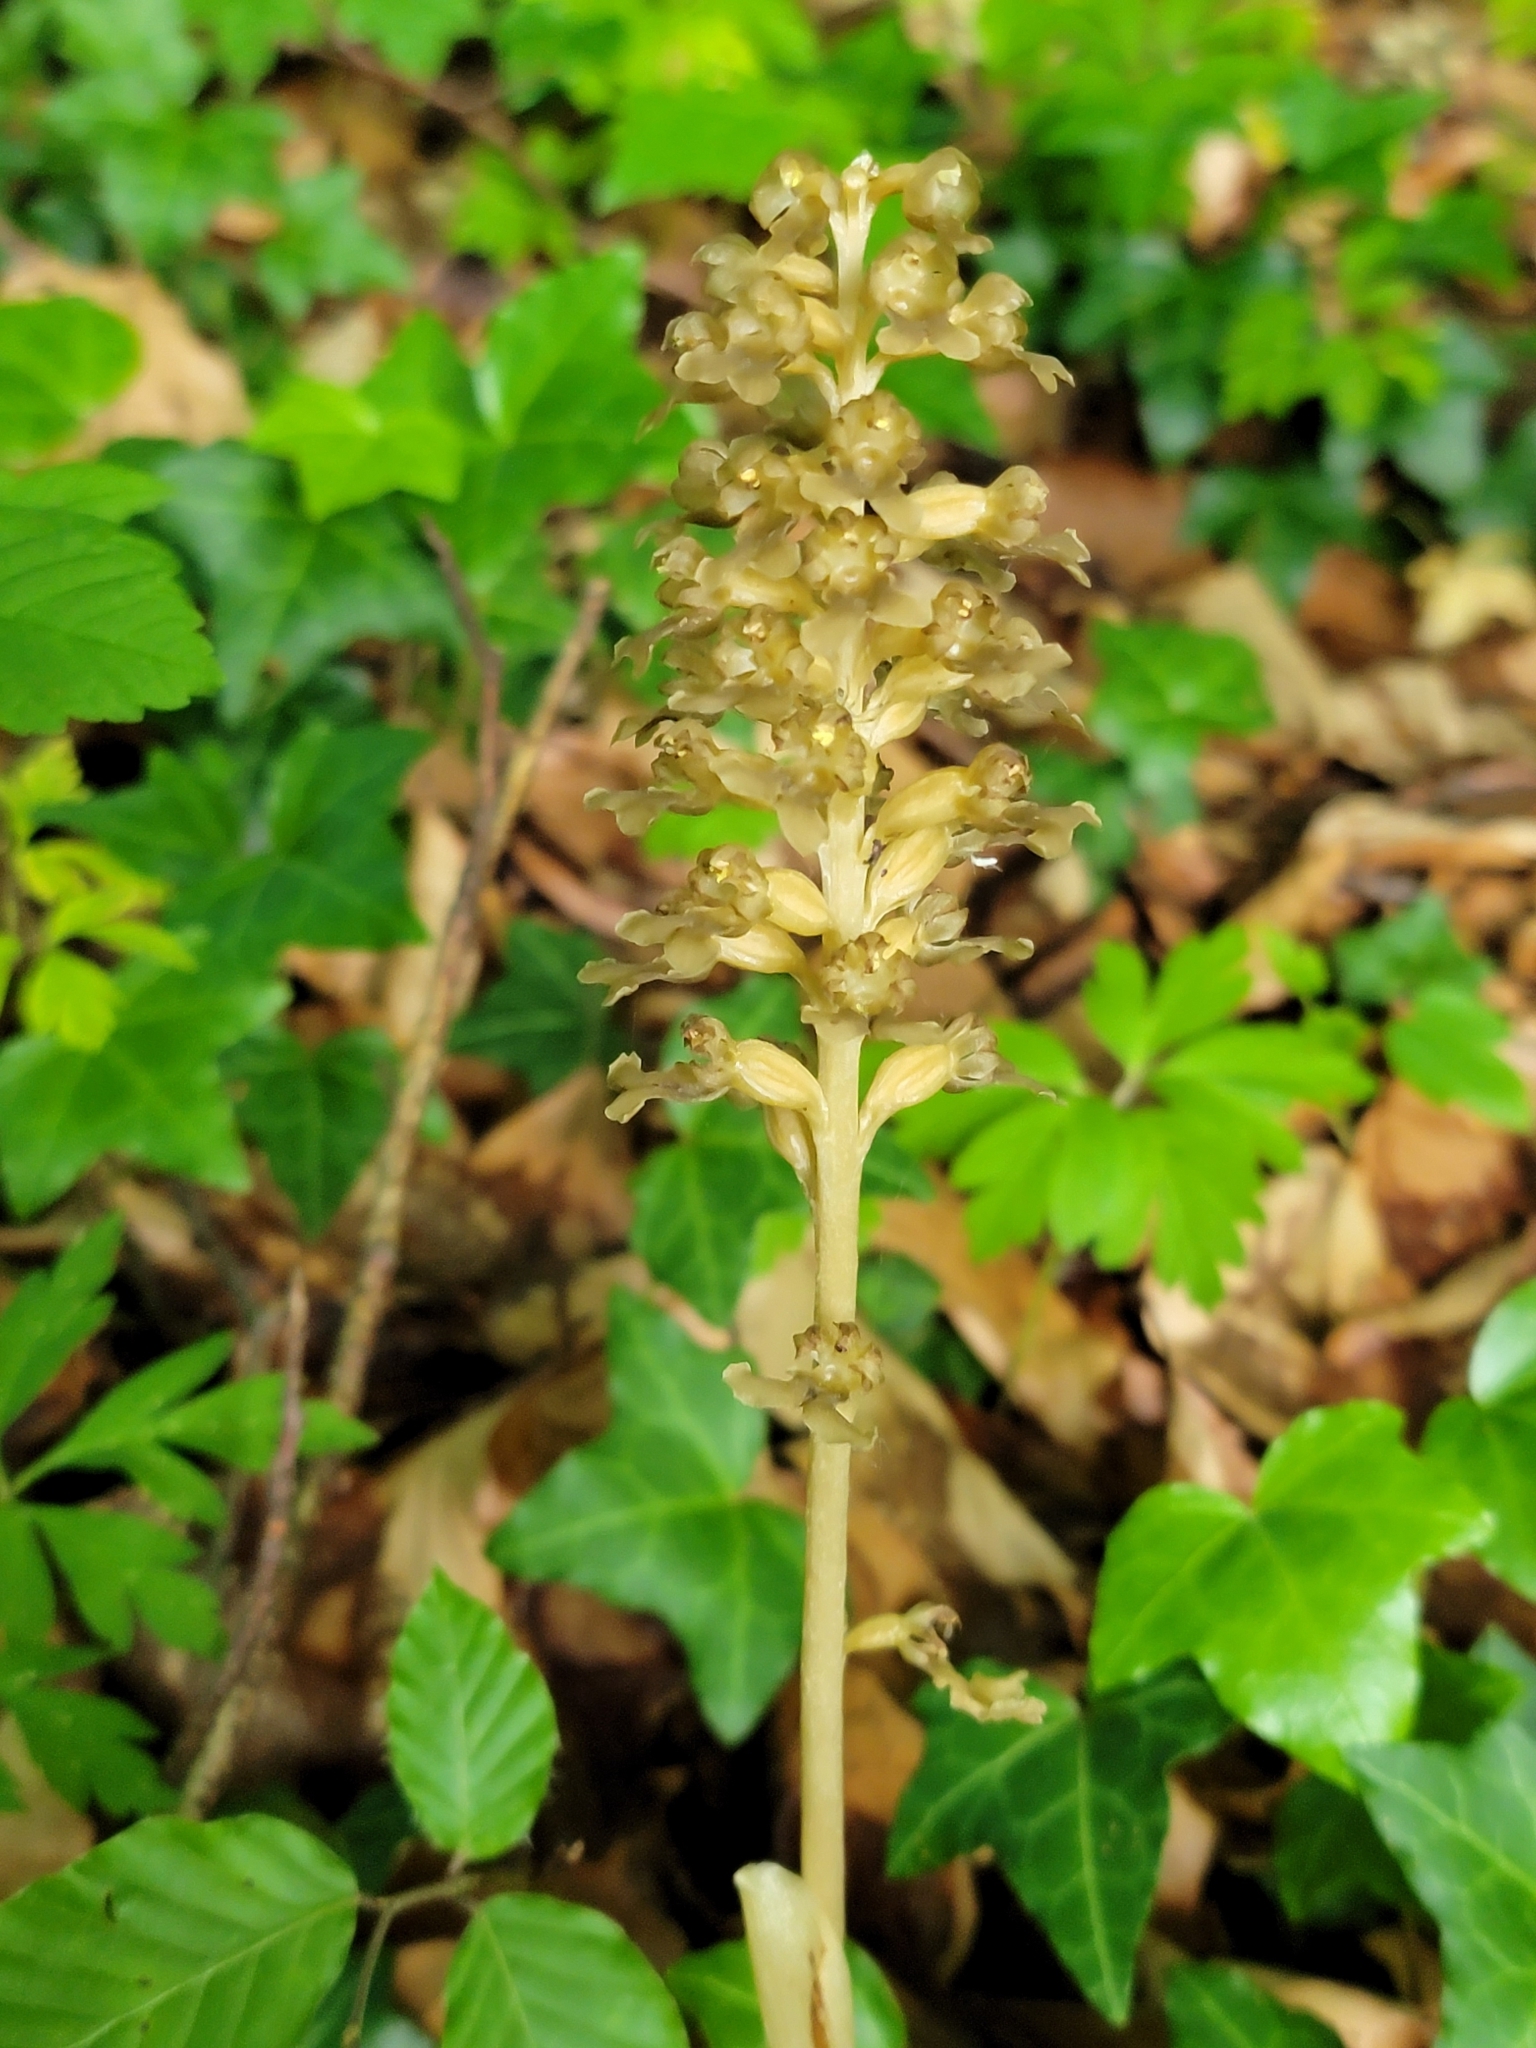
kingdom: Plantae
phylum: Tracheophyta
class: Liliopsida
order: Asparagales
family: Orchidaceae
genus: Neottia
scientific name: Neottia nidus-avis
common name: Bird's-nest orchid
